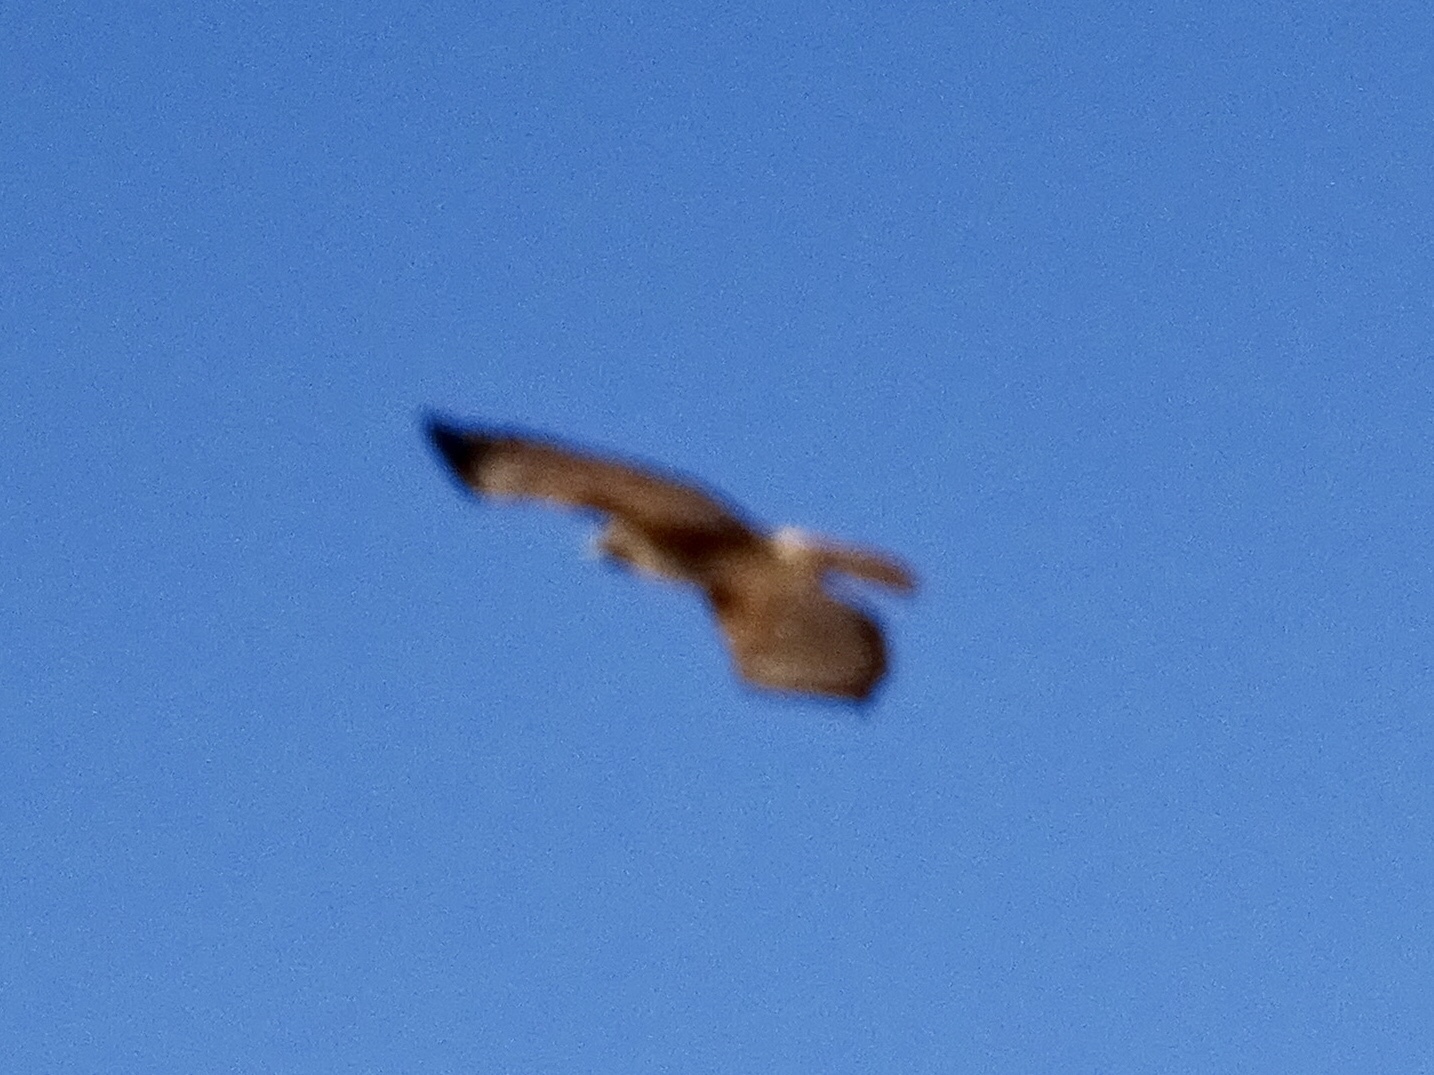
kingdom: Animalia
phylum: Chordata
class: Aves
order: Accipitriformes
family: Accipitridae
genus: Buteo
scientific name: Buteo jamaicensis
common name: Red-tailed hawk
